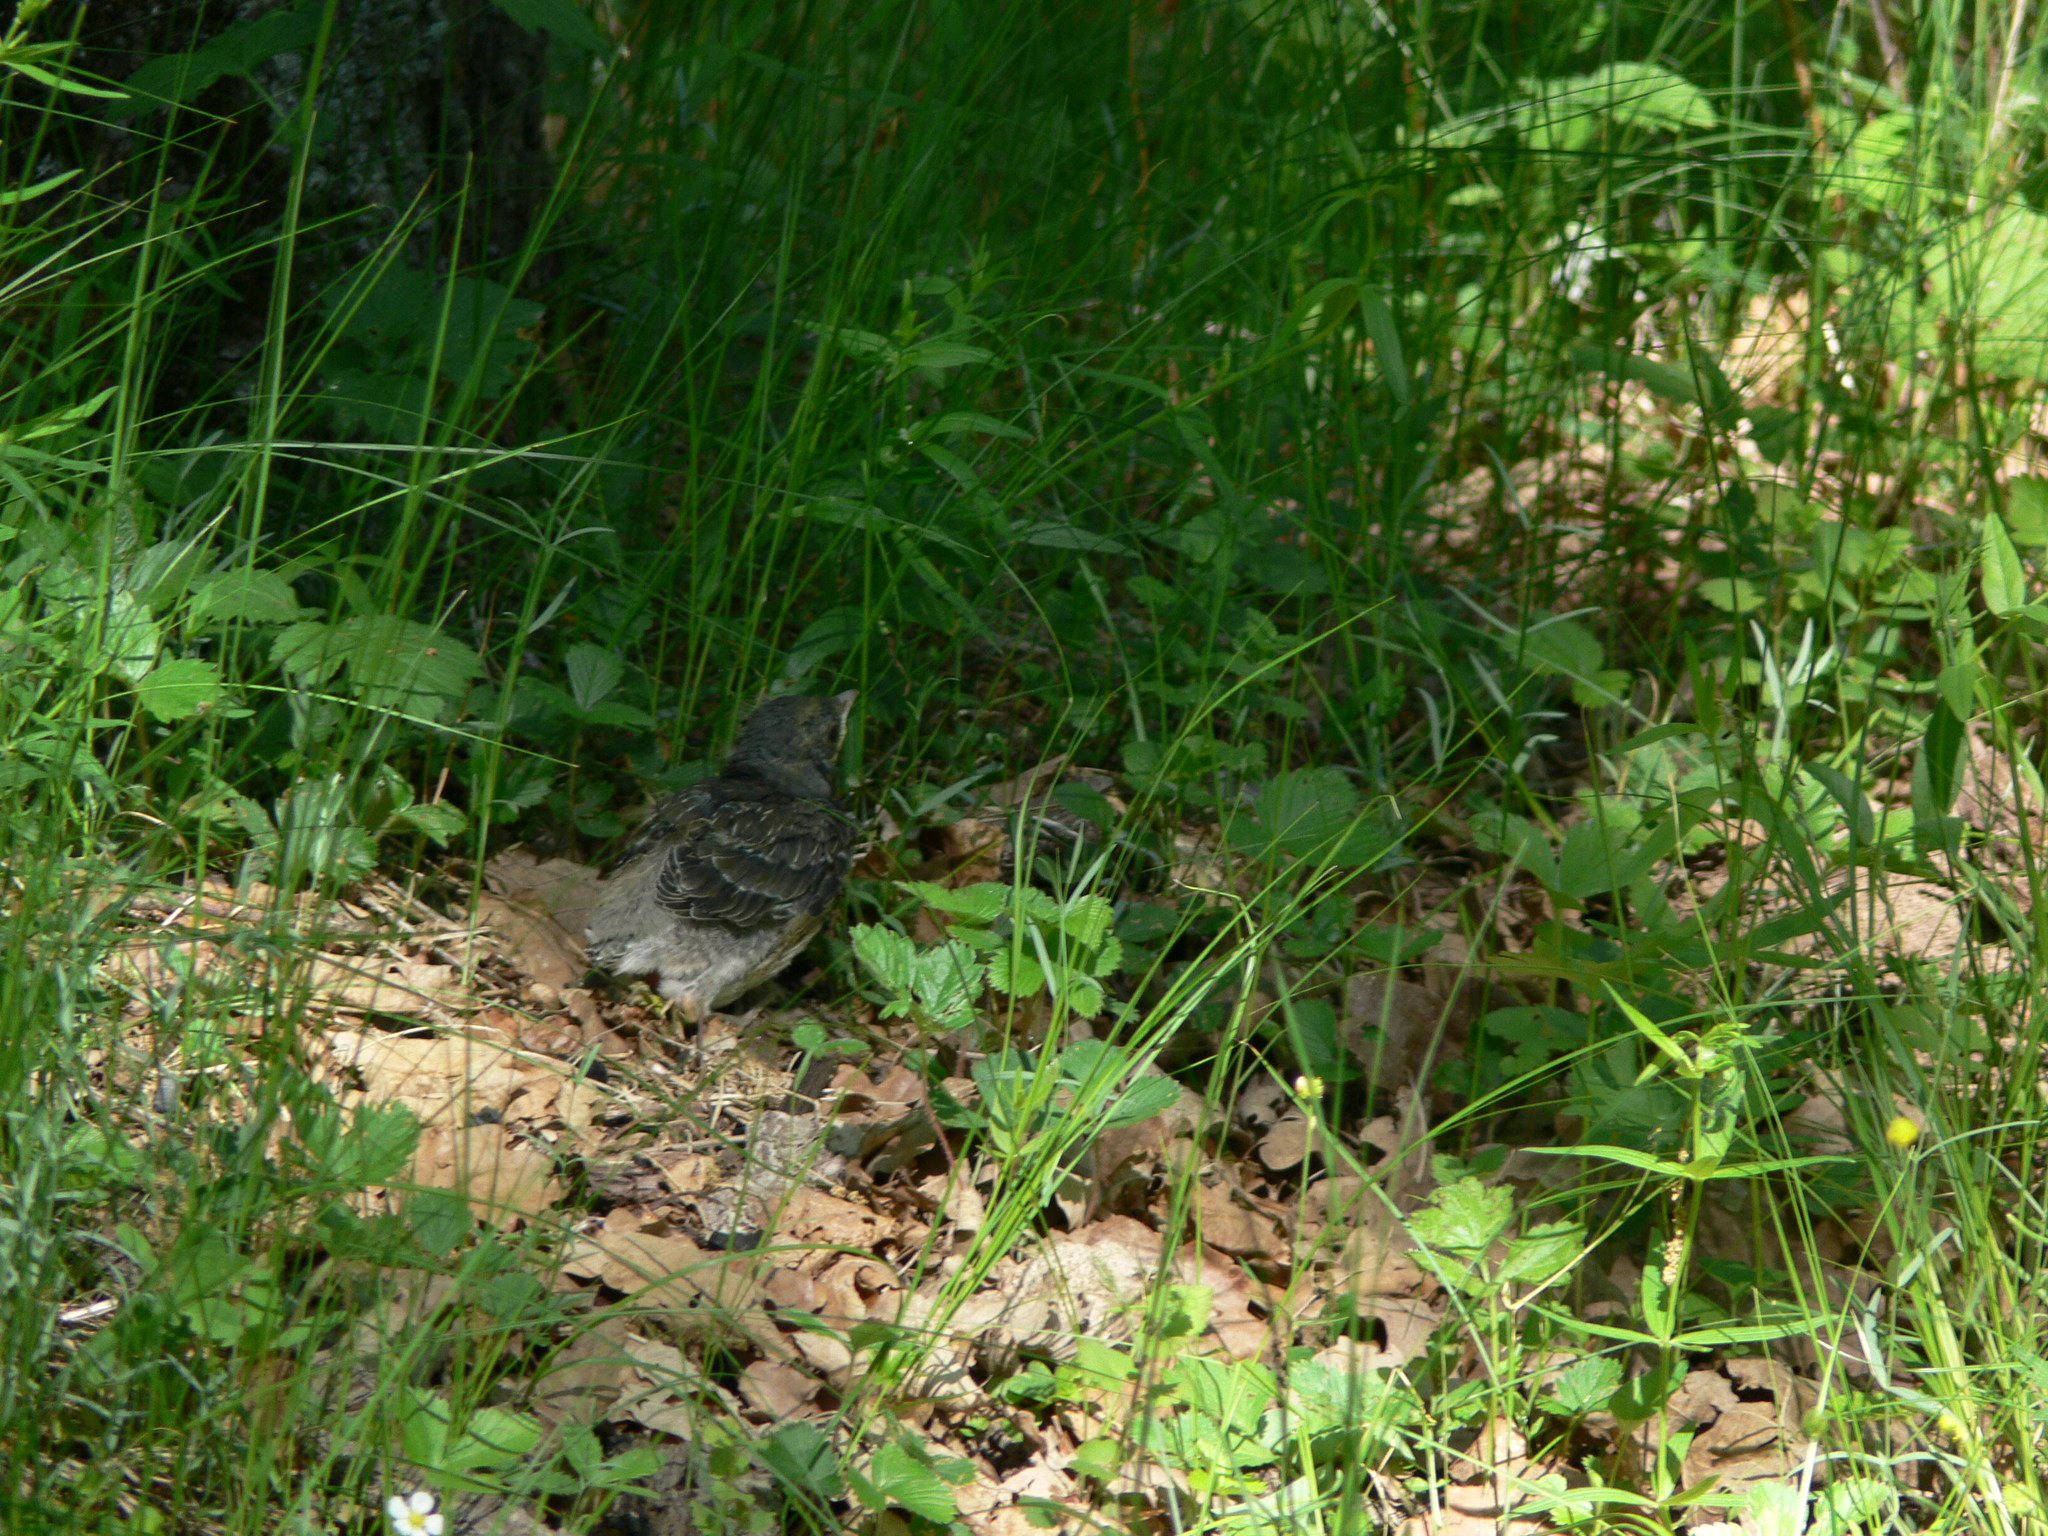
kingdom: Animalia
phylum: Chordata
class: Aves
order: Passeriformes
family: Turdidae
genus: Turdus
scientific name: Turdus pilaris
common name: Fieldfare
